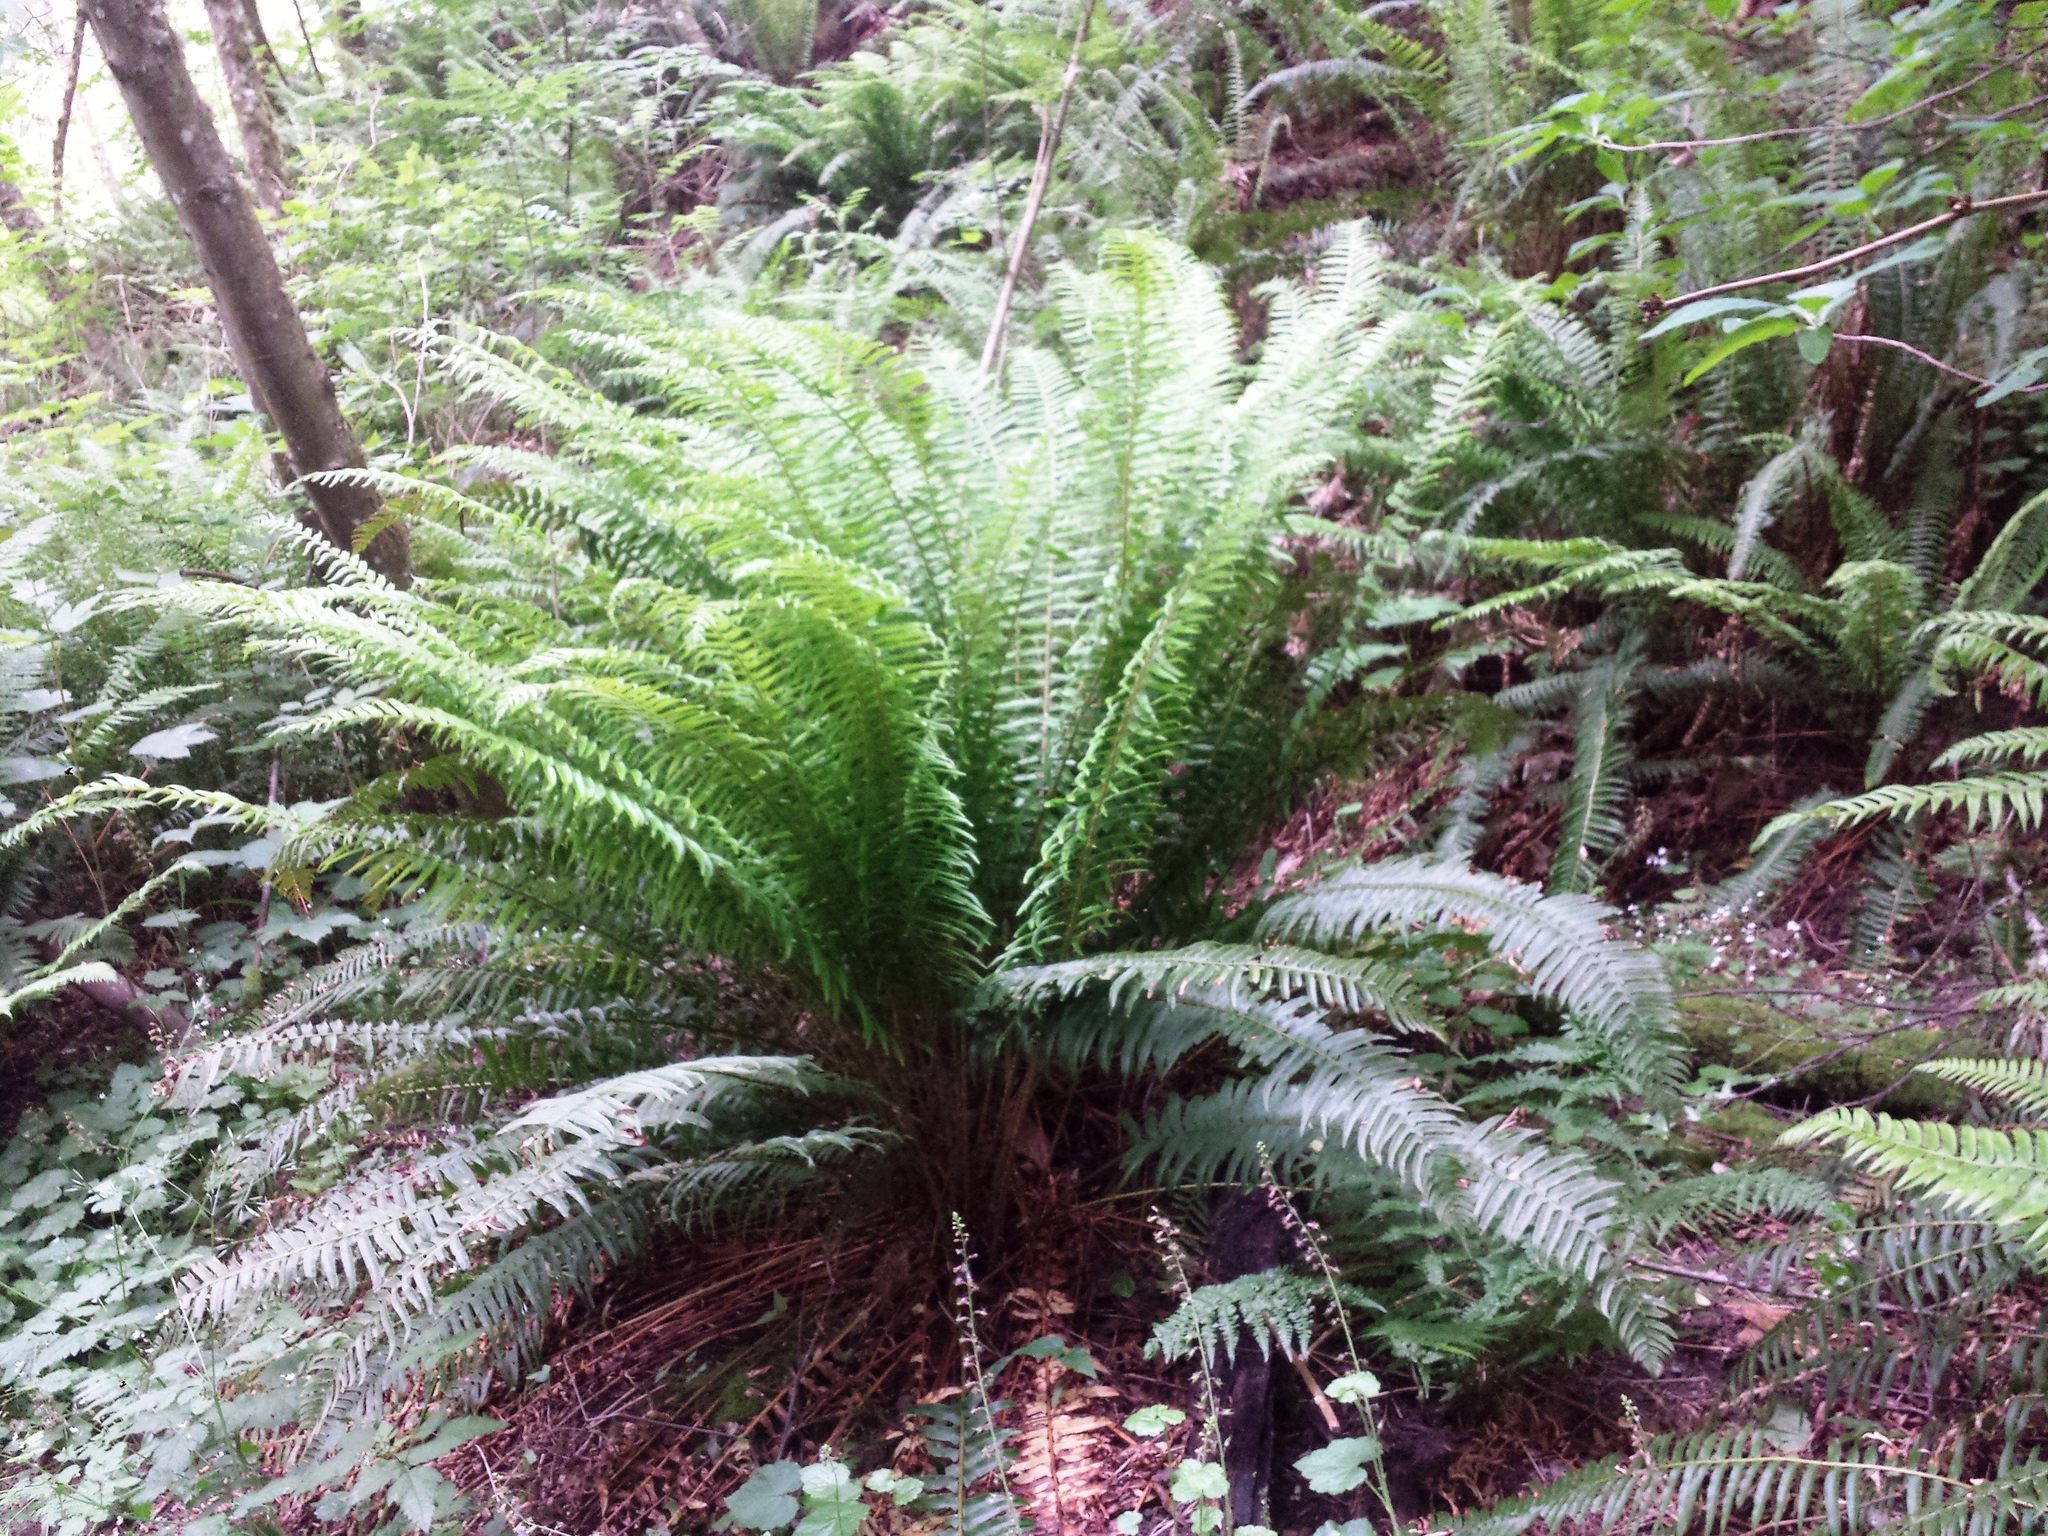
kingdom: Plantae
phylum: Tracheophyta
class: Polypodiopsida
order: Polypodiales
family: Dryopteridaceae
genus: Polystichum
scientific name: Polystichum munitum
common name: Western sword-fern
